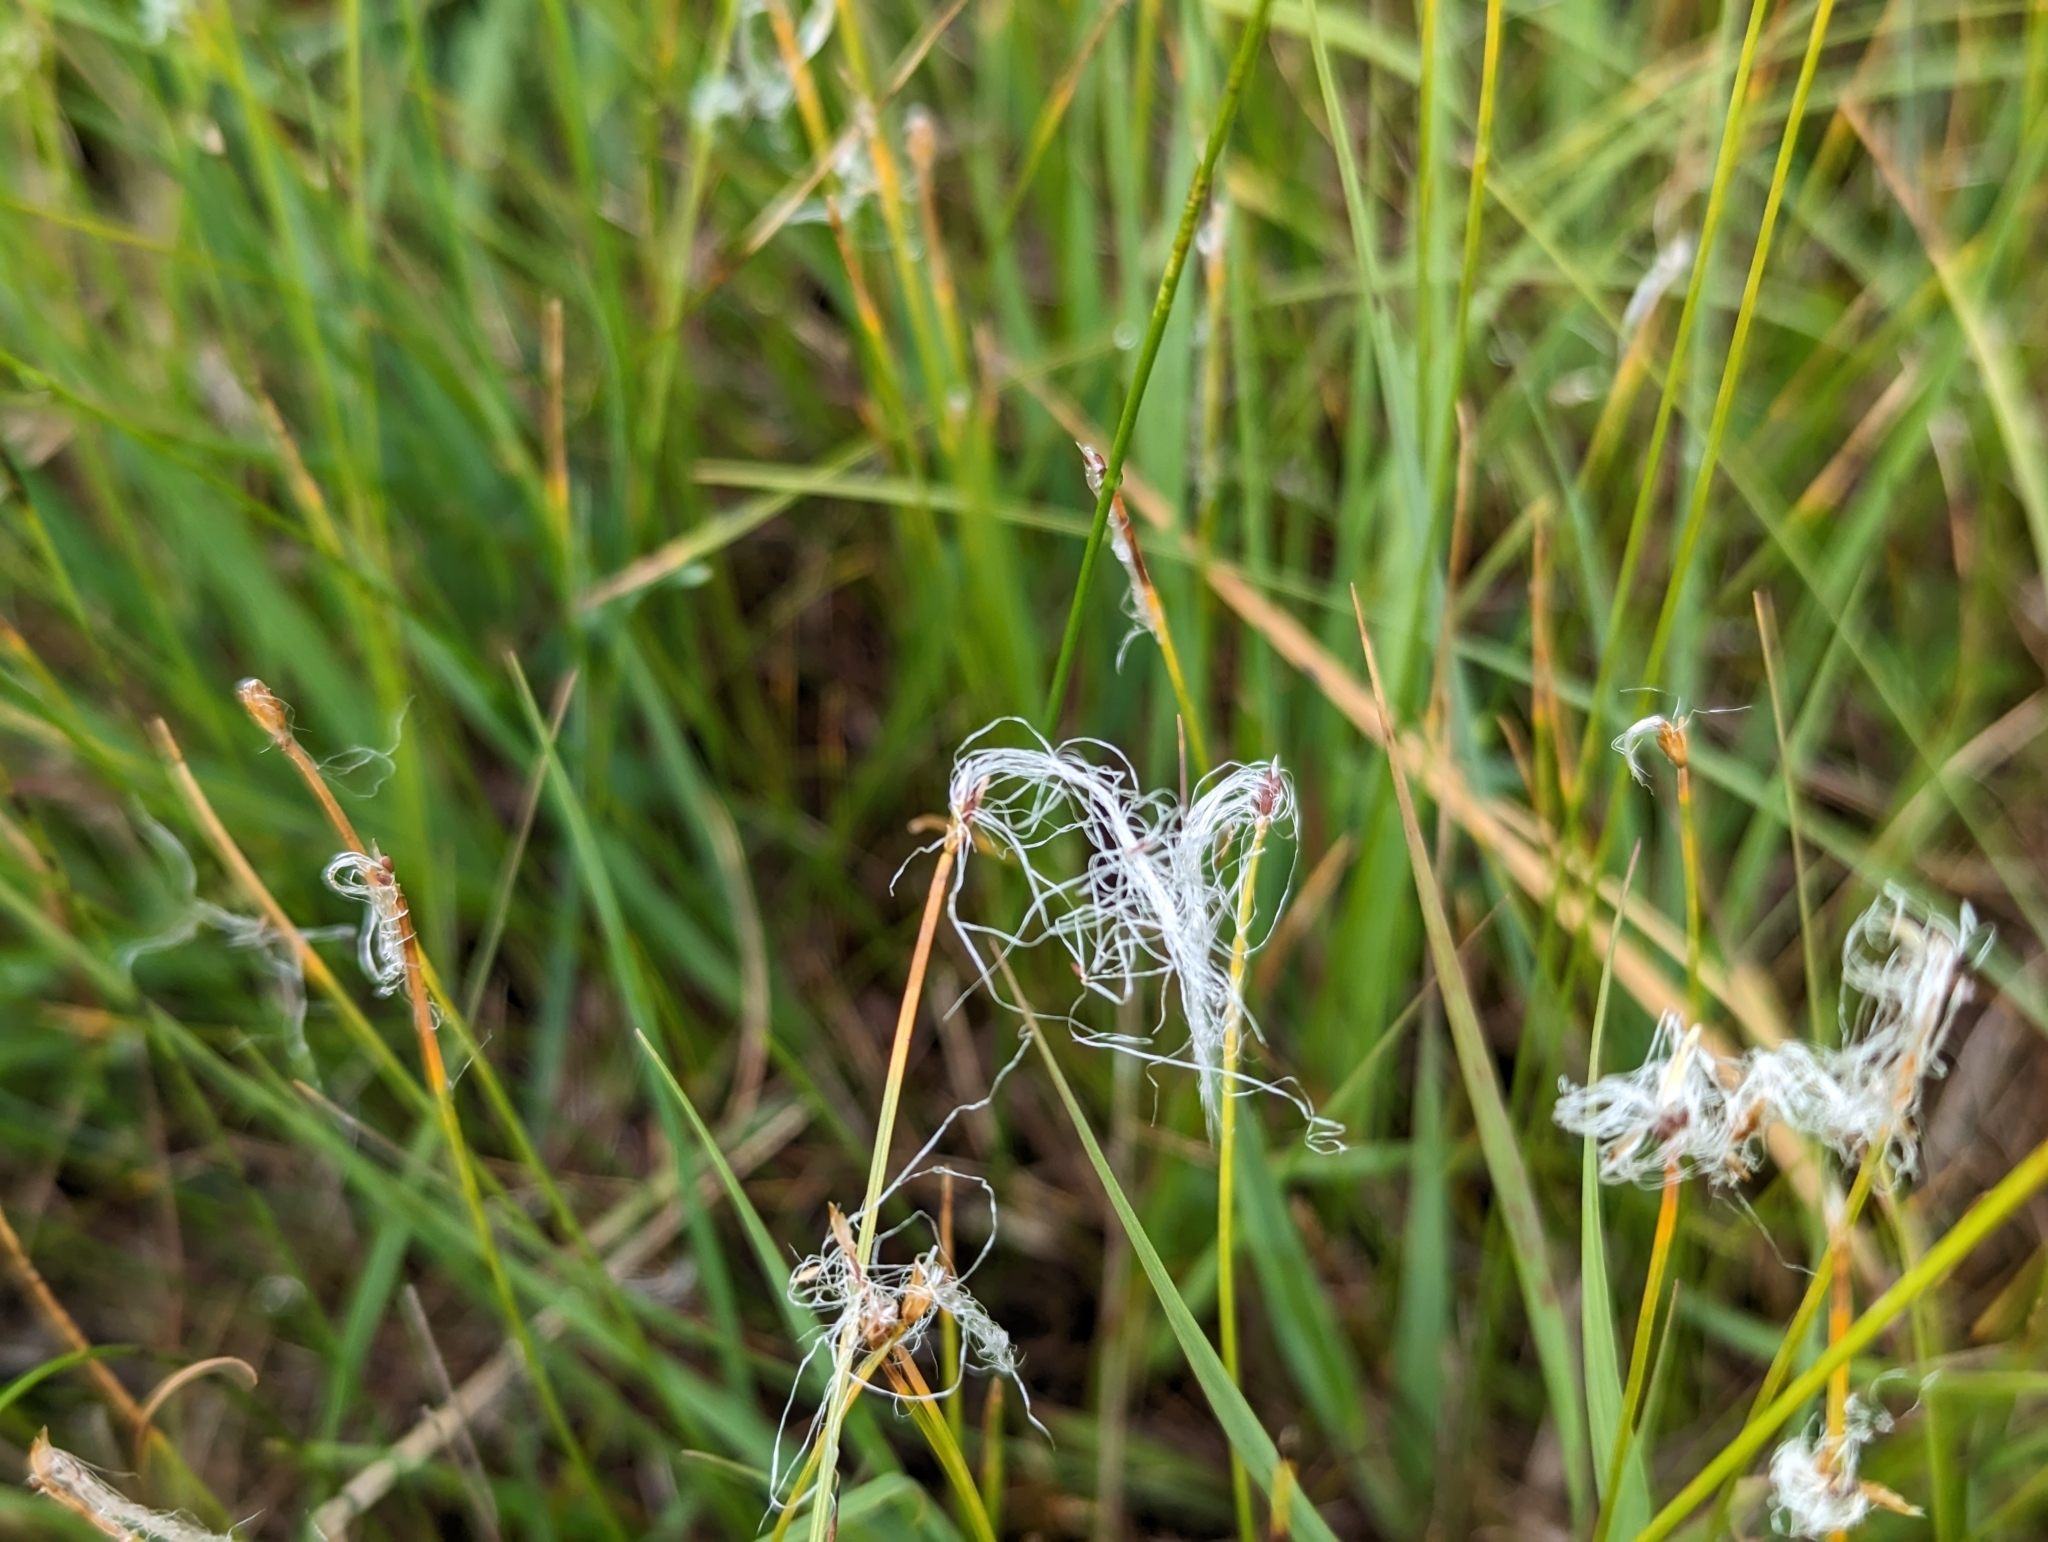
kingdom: Plantae
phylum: Tracheophyta
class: Liliopsida
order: Poales
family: Cyperaceae
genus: Trichophorum
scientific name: Trichophorum alpinum
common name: Alpine bulrush
